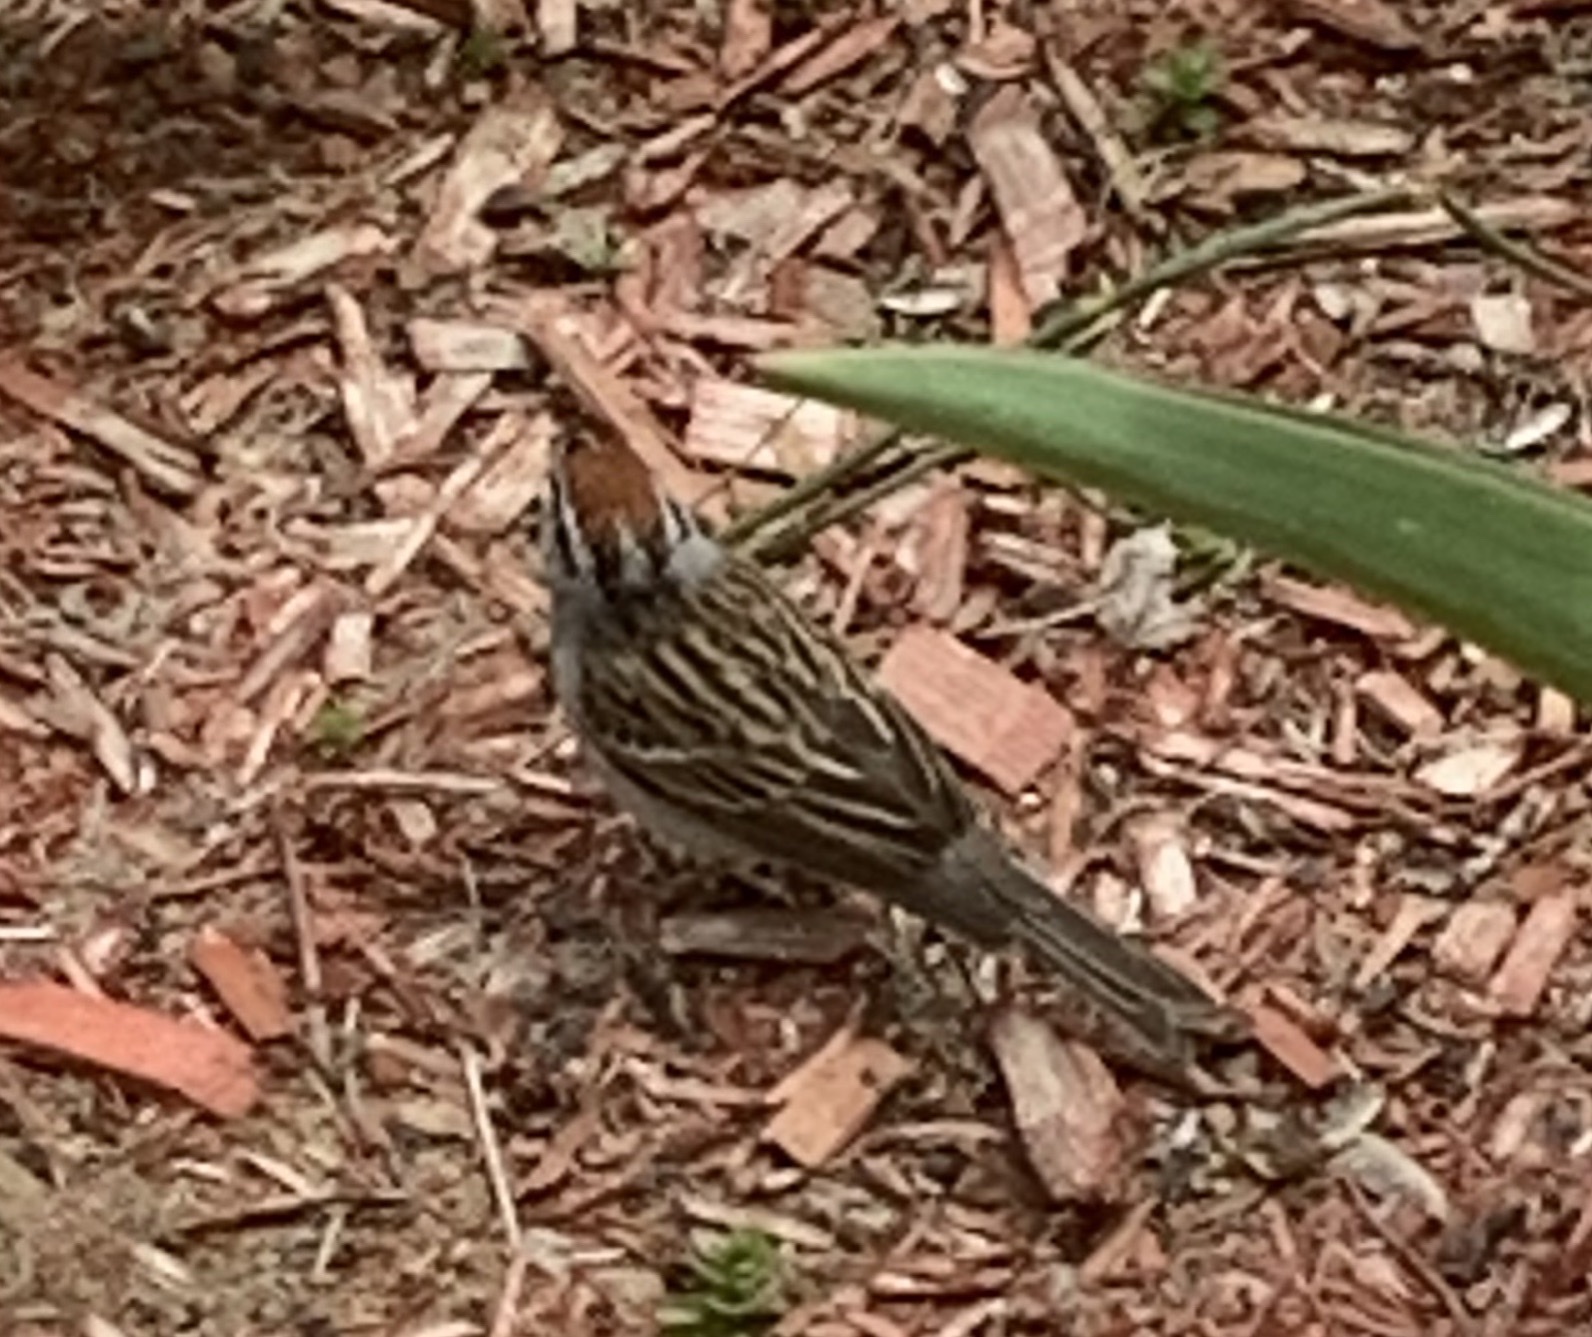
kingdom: Animalia
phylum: Chordata
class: Aves
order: Passeriformes
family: Passerellidae
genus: Spizella
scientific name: Spizella passerina
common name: Chipping sparrow
